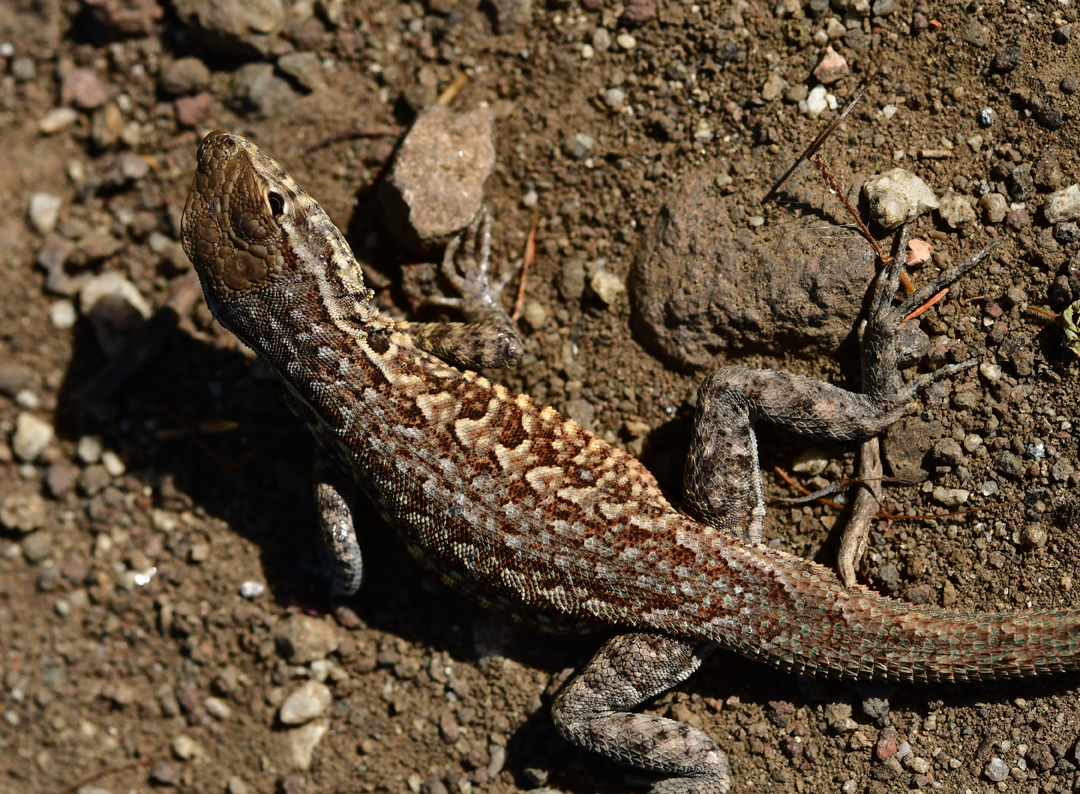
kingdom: Animalia
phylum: Chordata
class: Squamata
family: Phrynosomatidae
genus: Uta
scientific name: Uta stansburiana
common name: Side-blotched lizard
